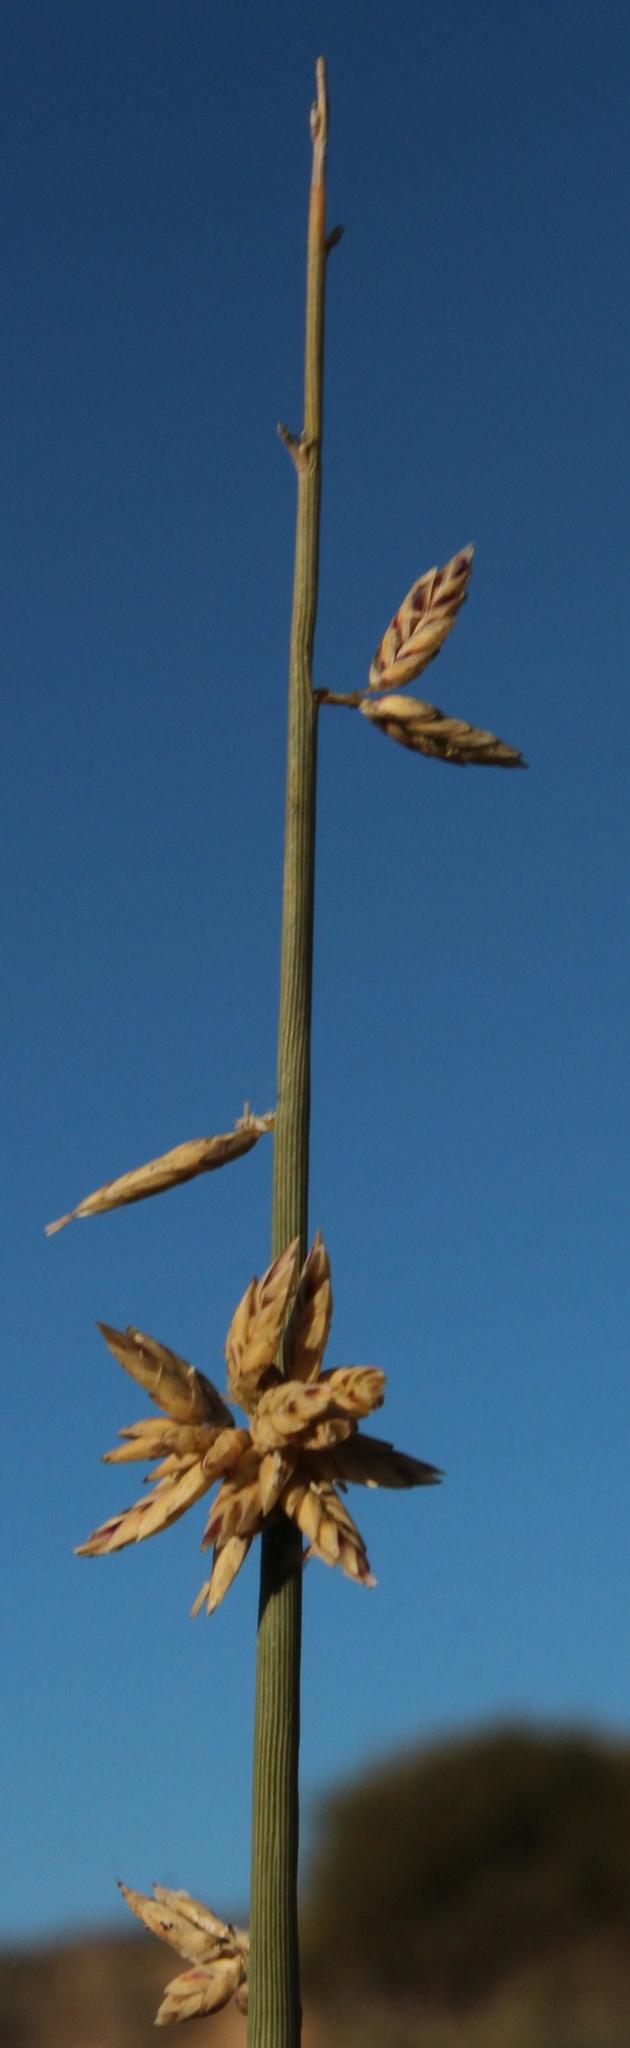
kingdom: Plantae
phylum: Tracheophyta
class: Liliopsida
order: Poales
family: Poaceae
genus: Cladoraphis
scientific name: Cladoraphis cyperoides
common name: Bristly lovegrass
